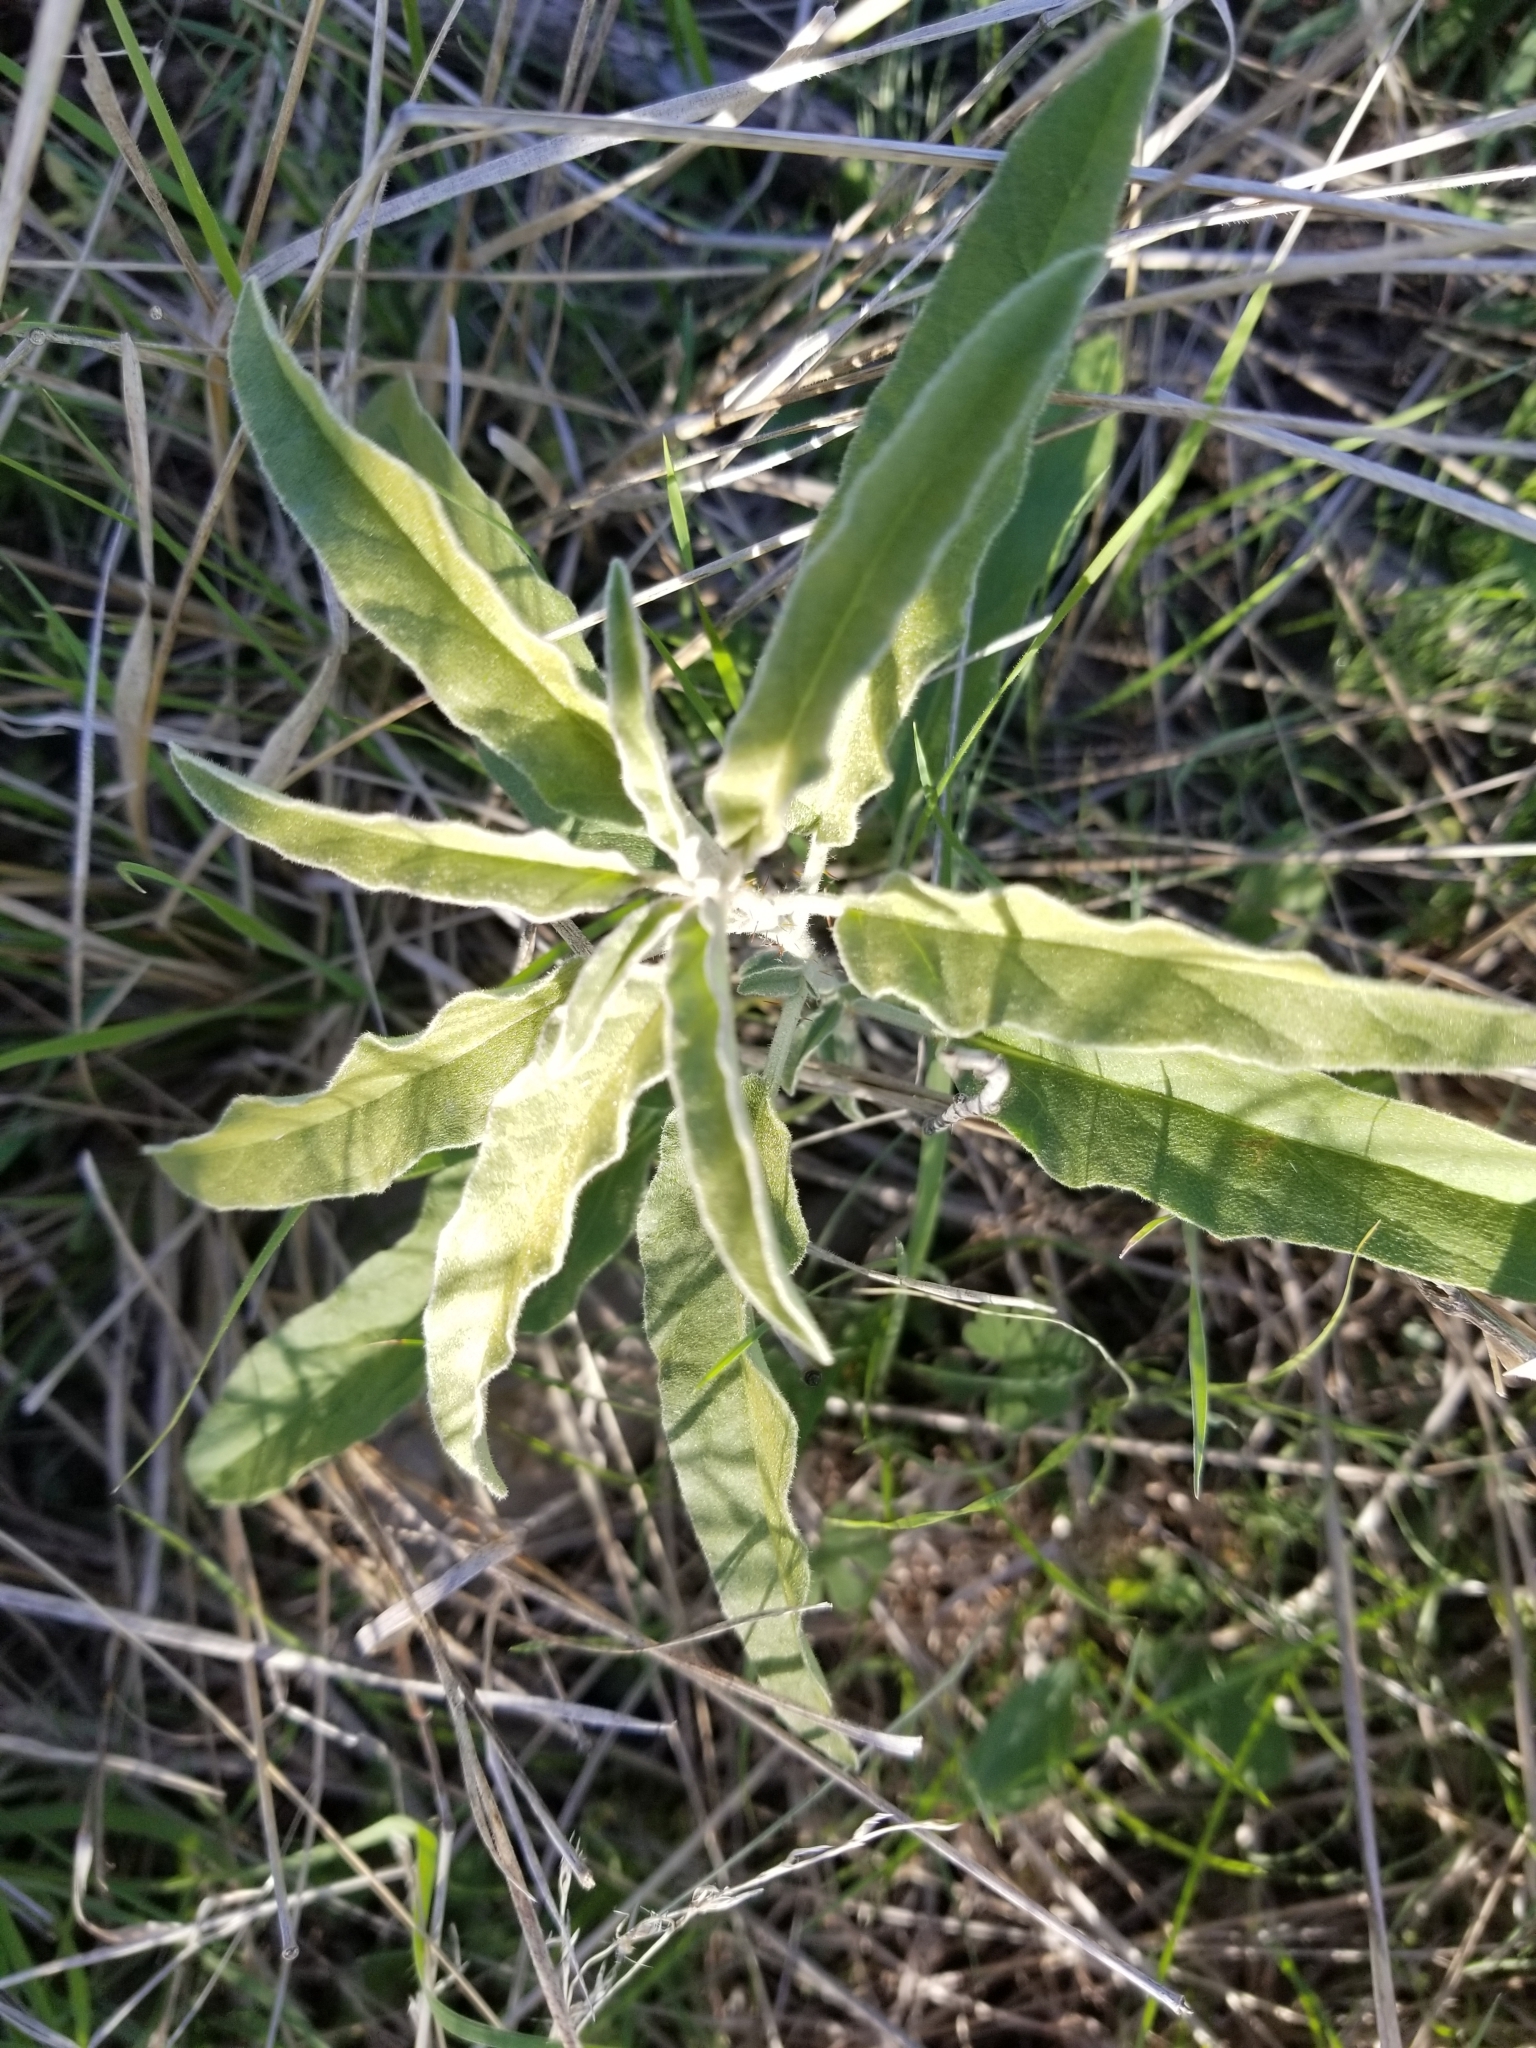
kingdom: Plantae
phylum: Tracheophyta
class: Magnoliopsida
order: Solanales
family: Solanaceae
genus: Solanum
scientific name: Solanum elaeagnifolium
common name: Silverleaf nightshade
